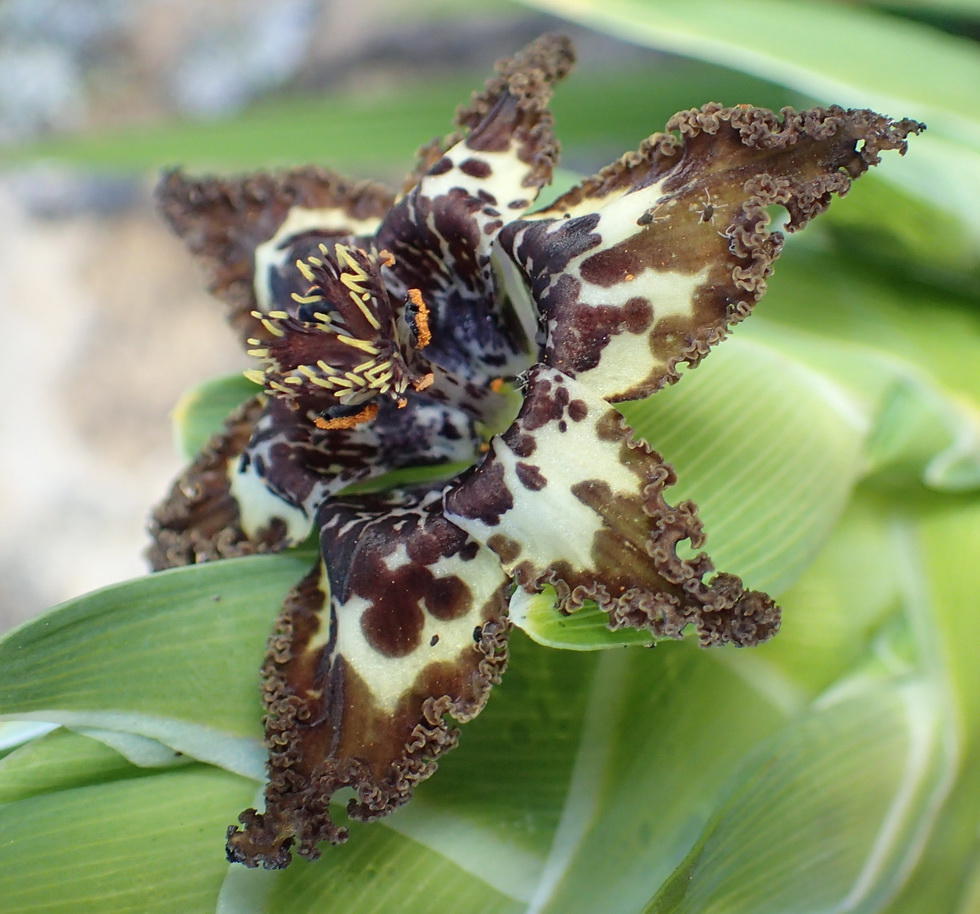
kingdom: Plantae
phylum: Tracheophyta
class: Liliopsida
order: Asparagales
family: Iridaceae
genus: Ferraria
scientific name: Ferraria crispa
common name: Black-flag
